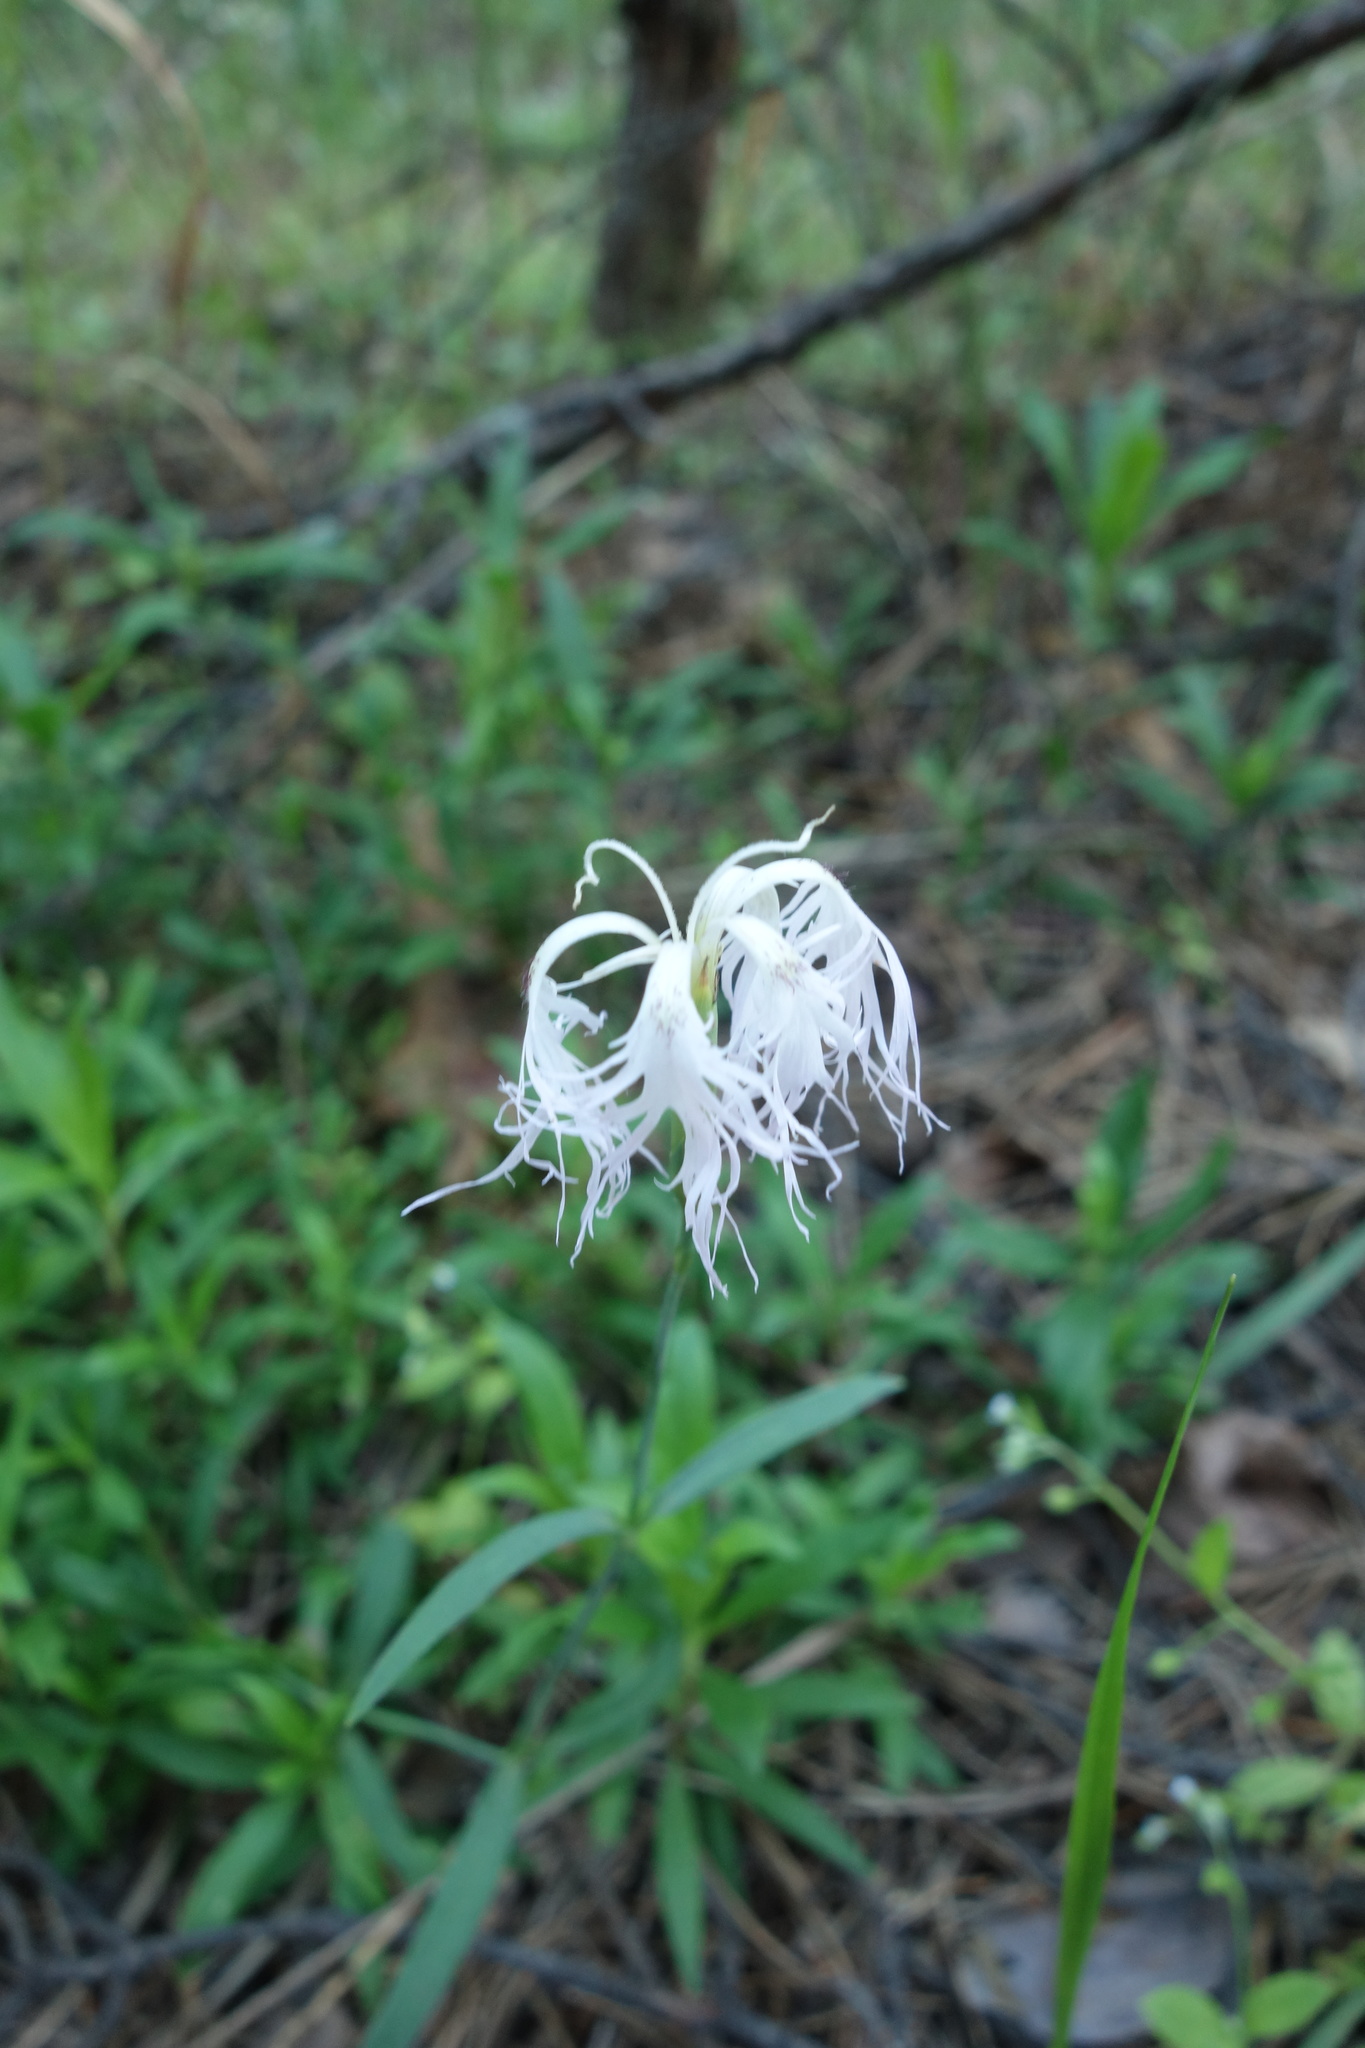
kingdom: Plantae
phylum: Tracheophyta
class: Magnoliopsida
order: Caryophyllales
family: Caryophyllaceae
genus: Dianthus
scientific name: Dianthus superbus
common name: Fringed pink
